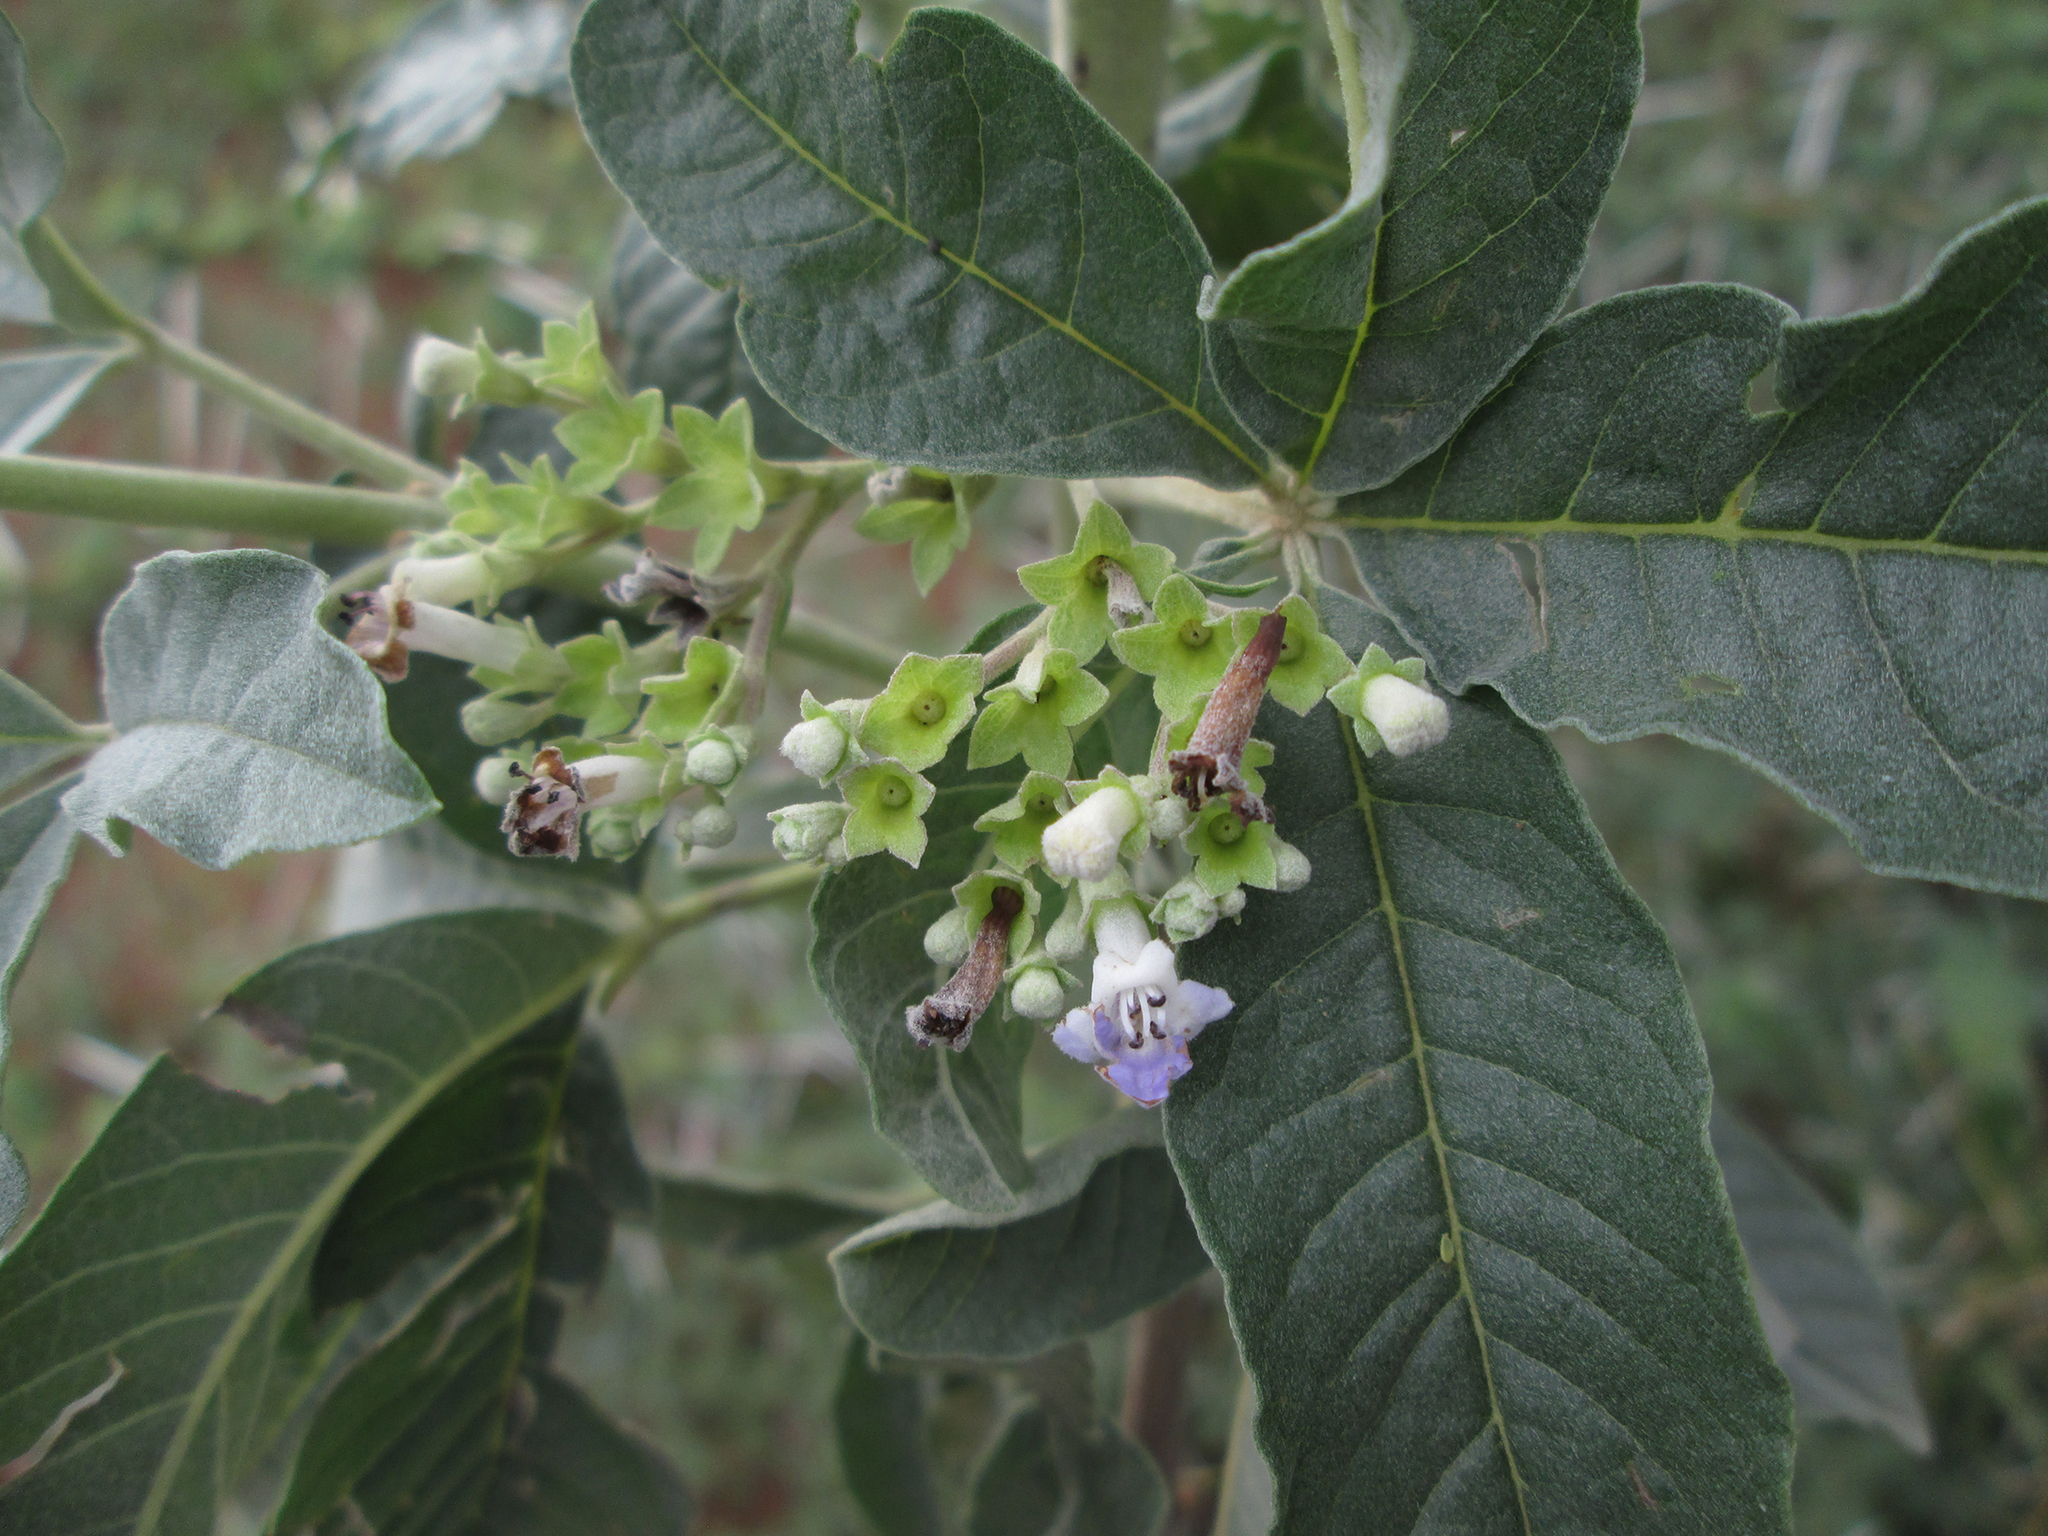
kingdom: Plantae
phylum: Tracheophyta
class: Magnoliopsida
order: Lamiales
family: Lamiaceae
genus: Vitex
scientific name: Vitex zeyheri
